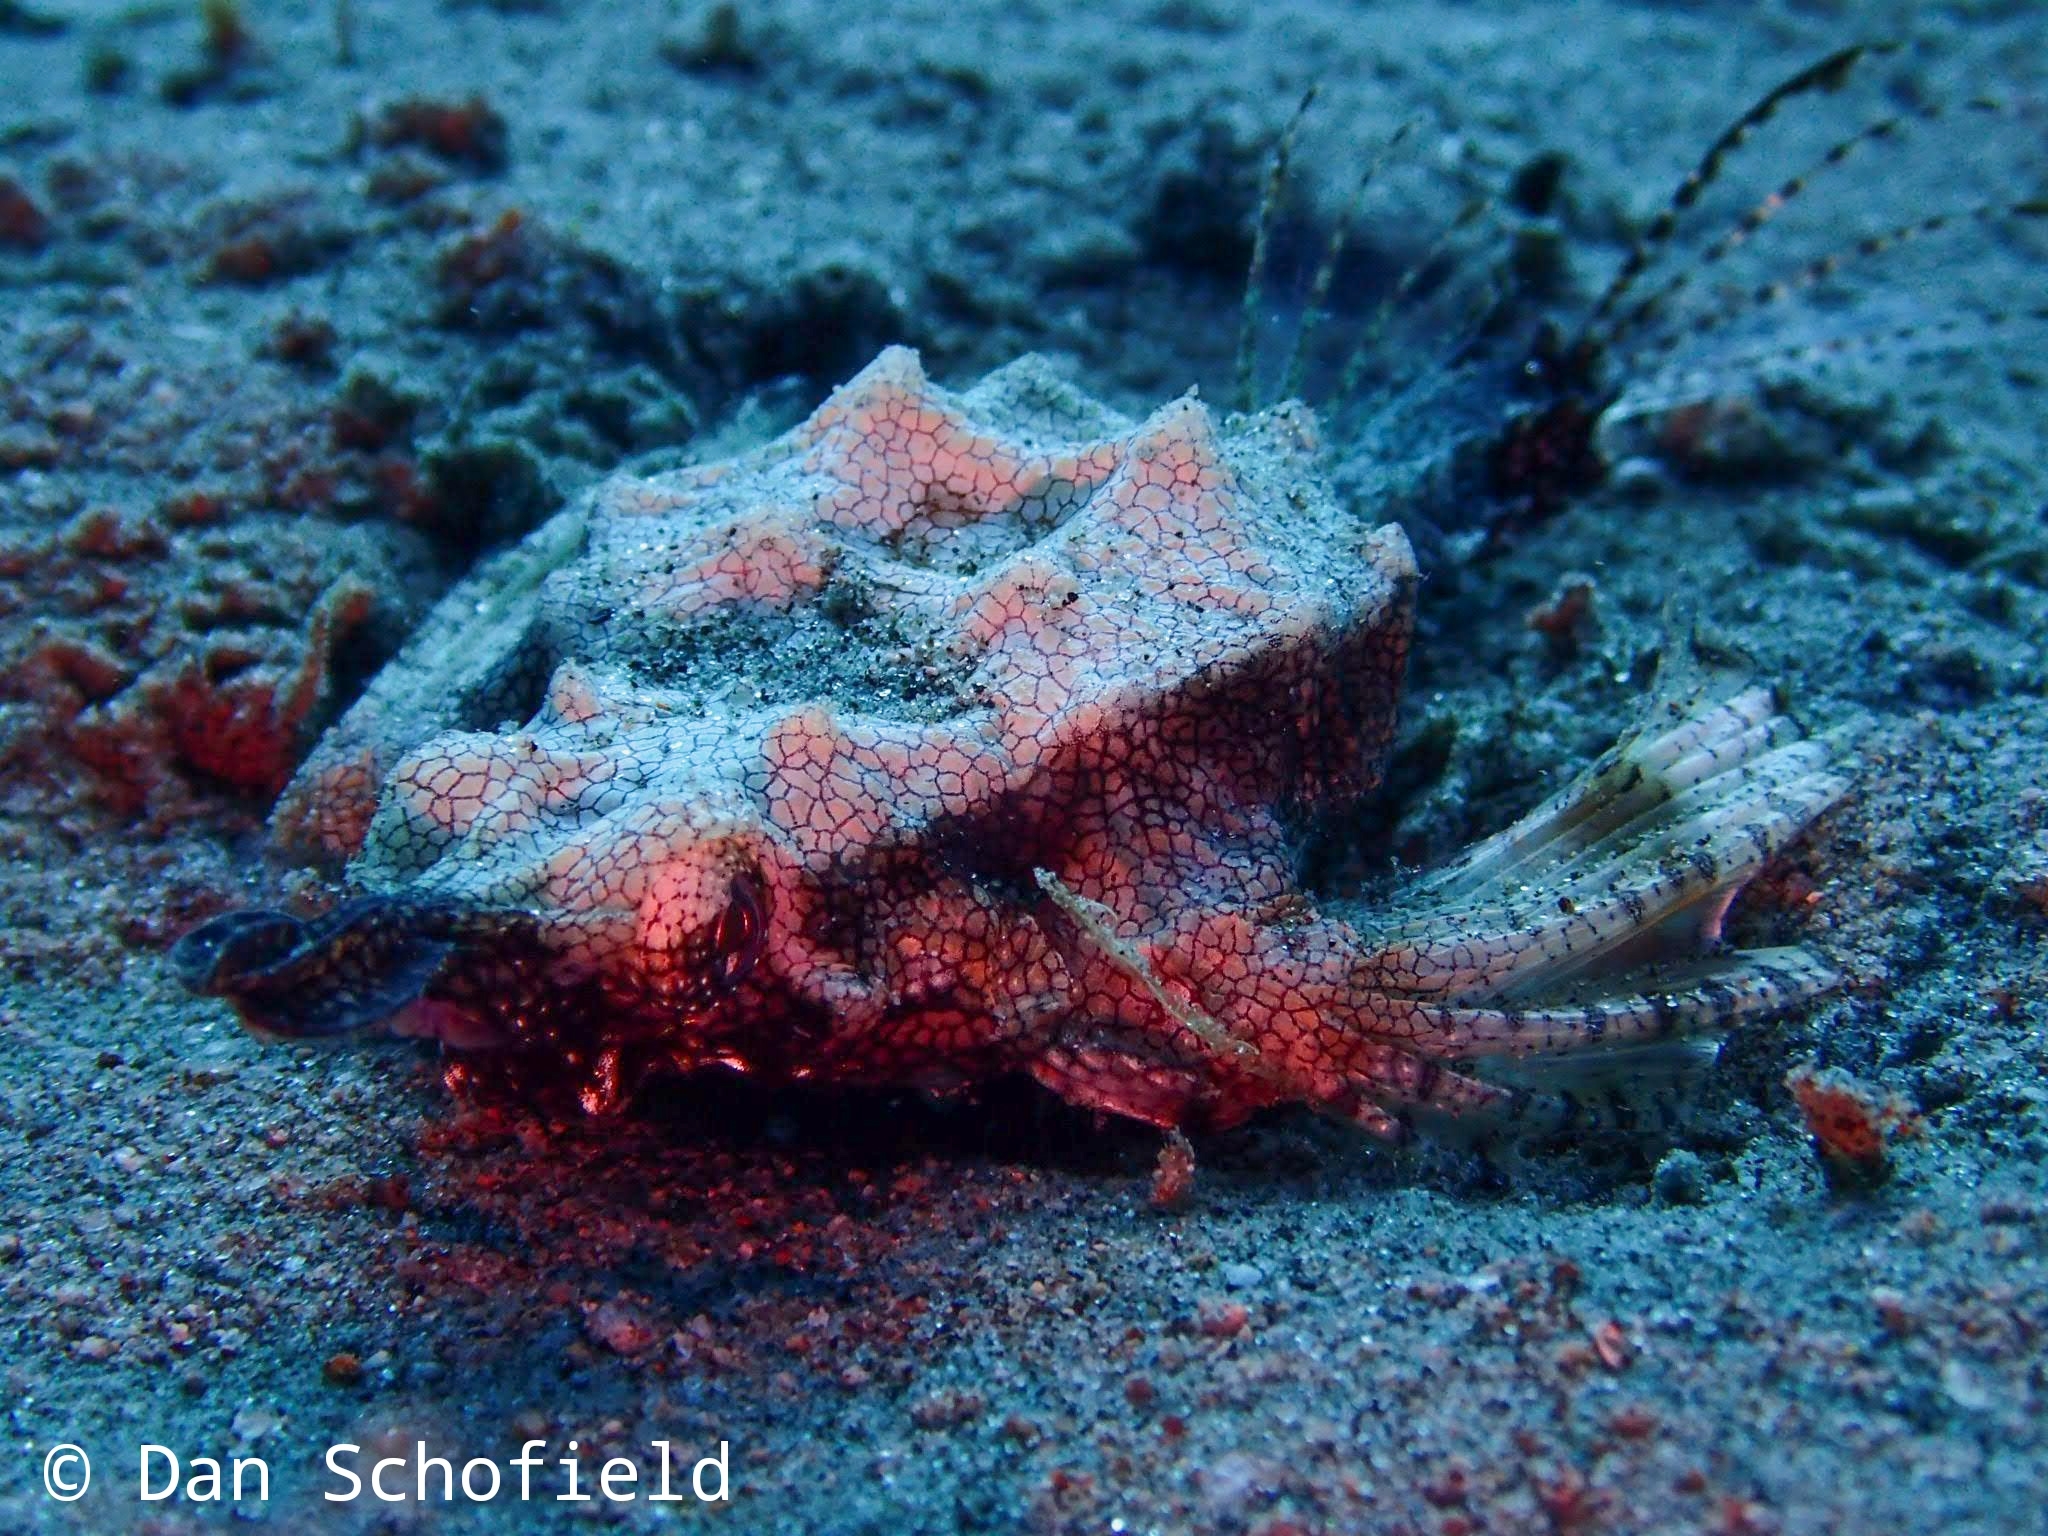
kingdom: Animalia
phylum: Chordata
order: Gasterosteiformes
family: Pegasidae
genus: Eurypegasus
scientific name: Eurypegasus draconis
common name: Short dragonfish
